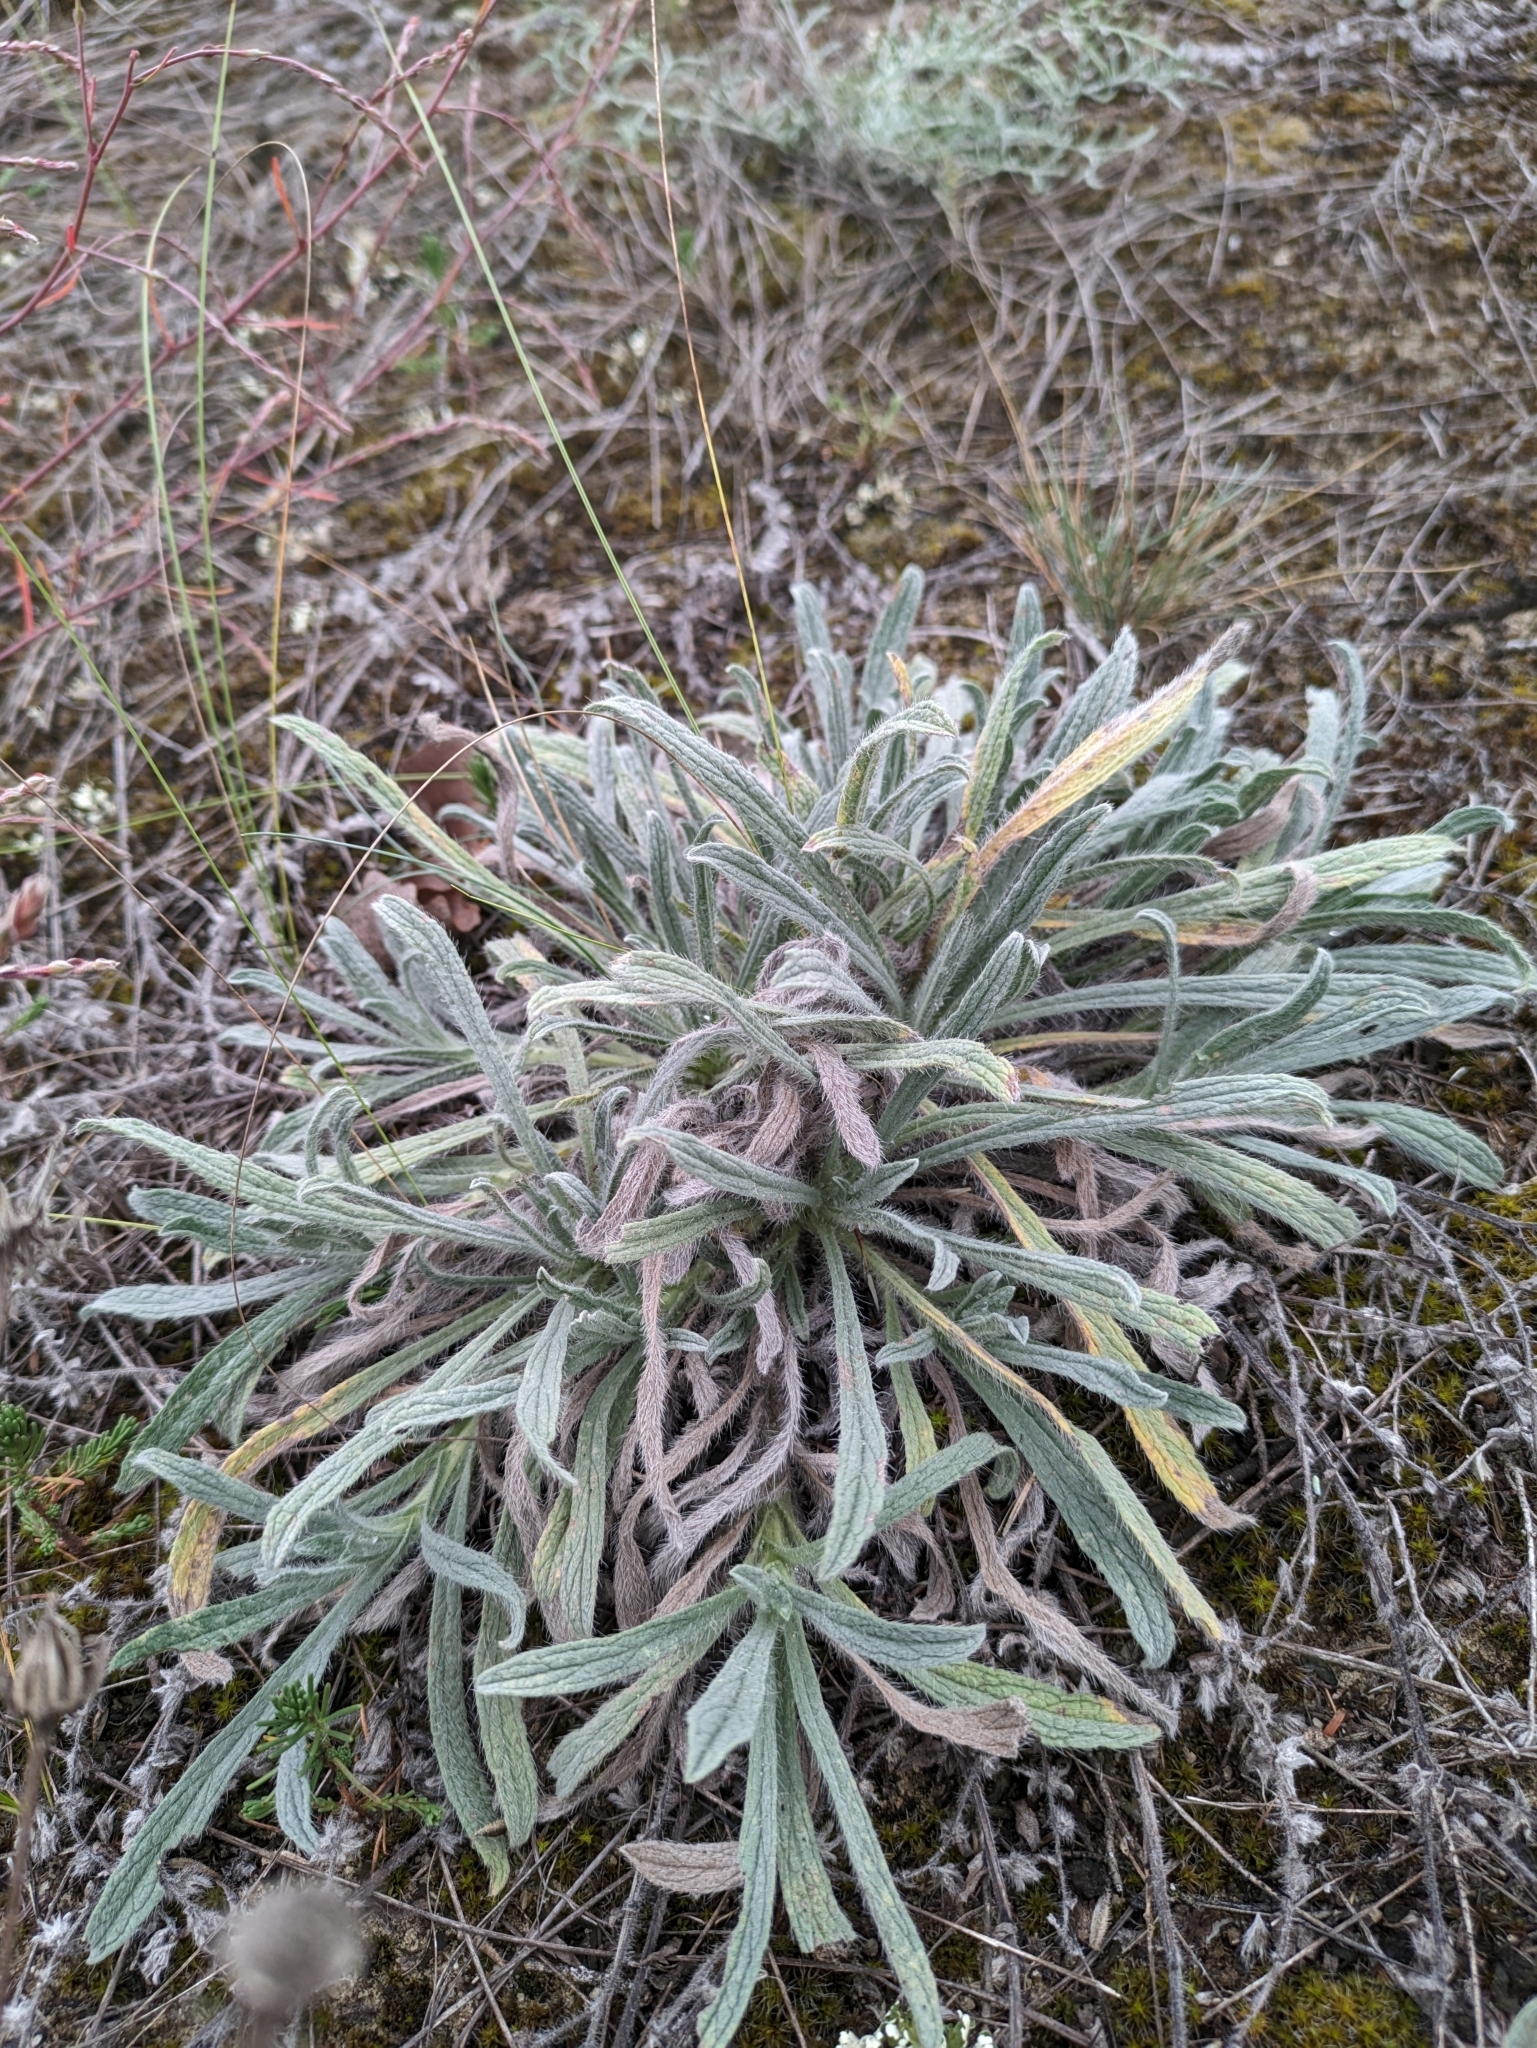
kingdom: Plantae
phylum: Tracheophyta
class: Magnoliopsida
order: Boraginales
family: Boraginaceae
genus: Alkanna
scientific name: Alkanna tinctoria
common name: Dyer's-alkanet
